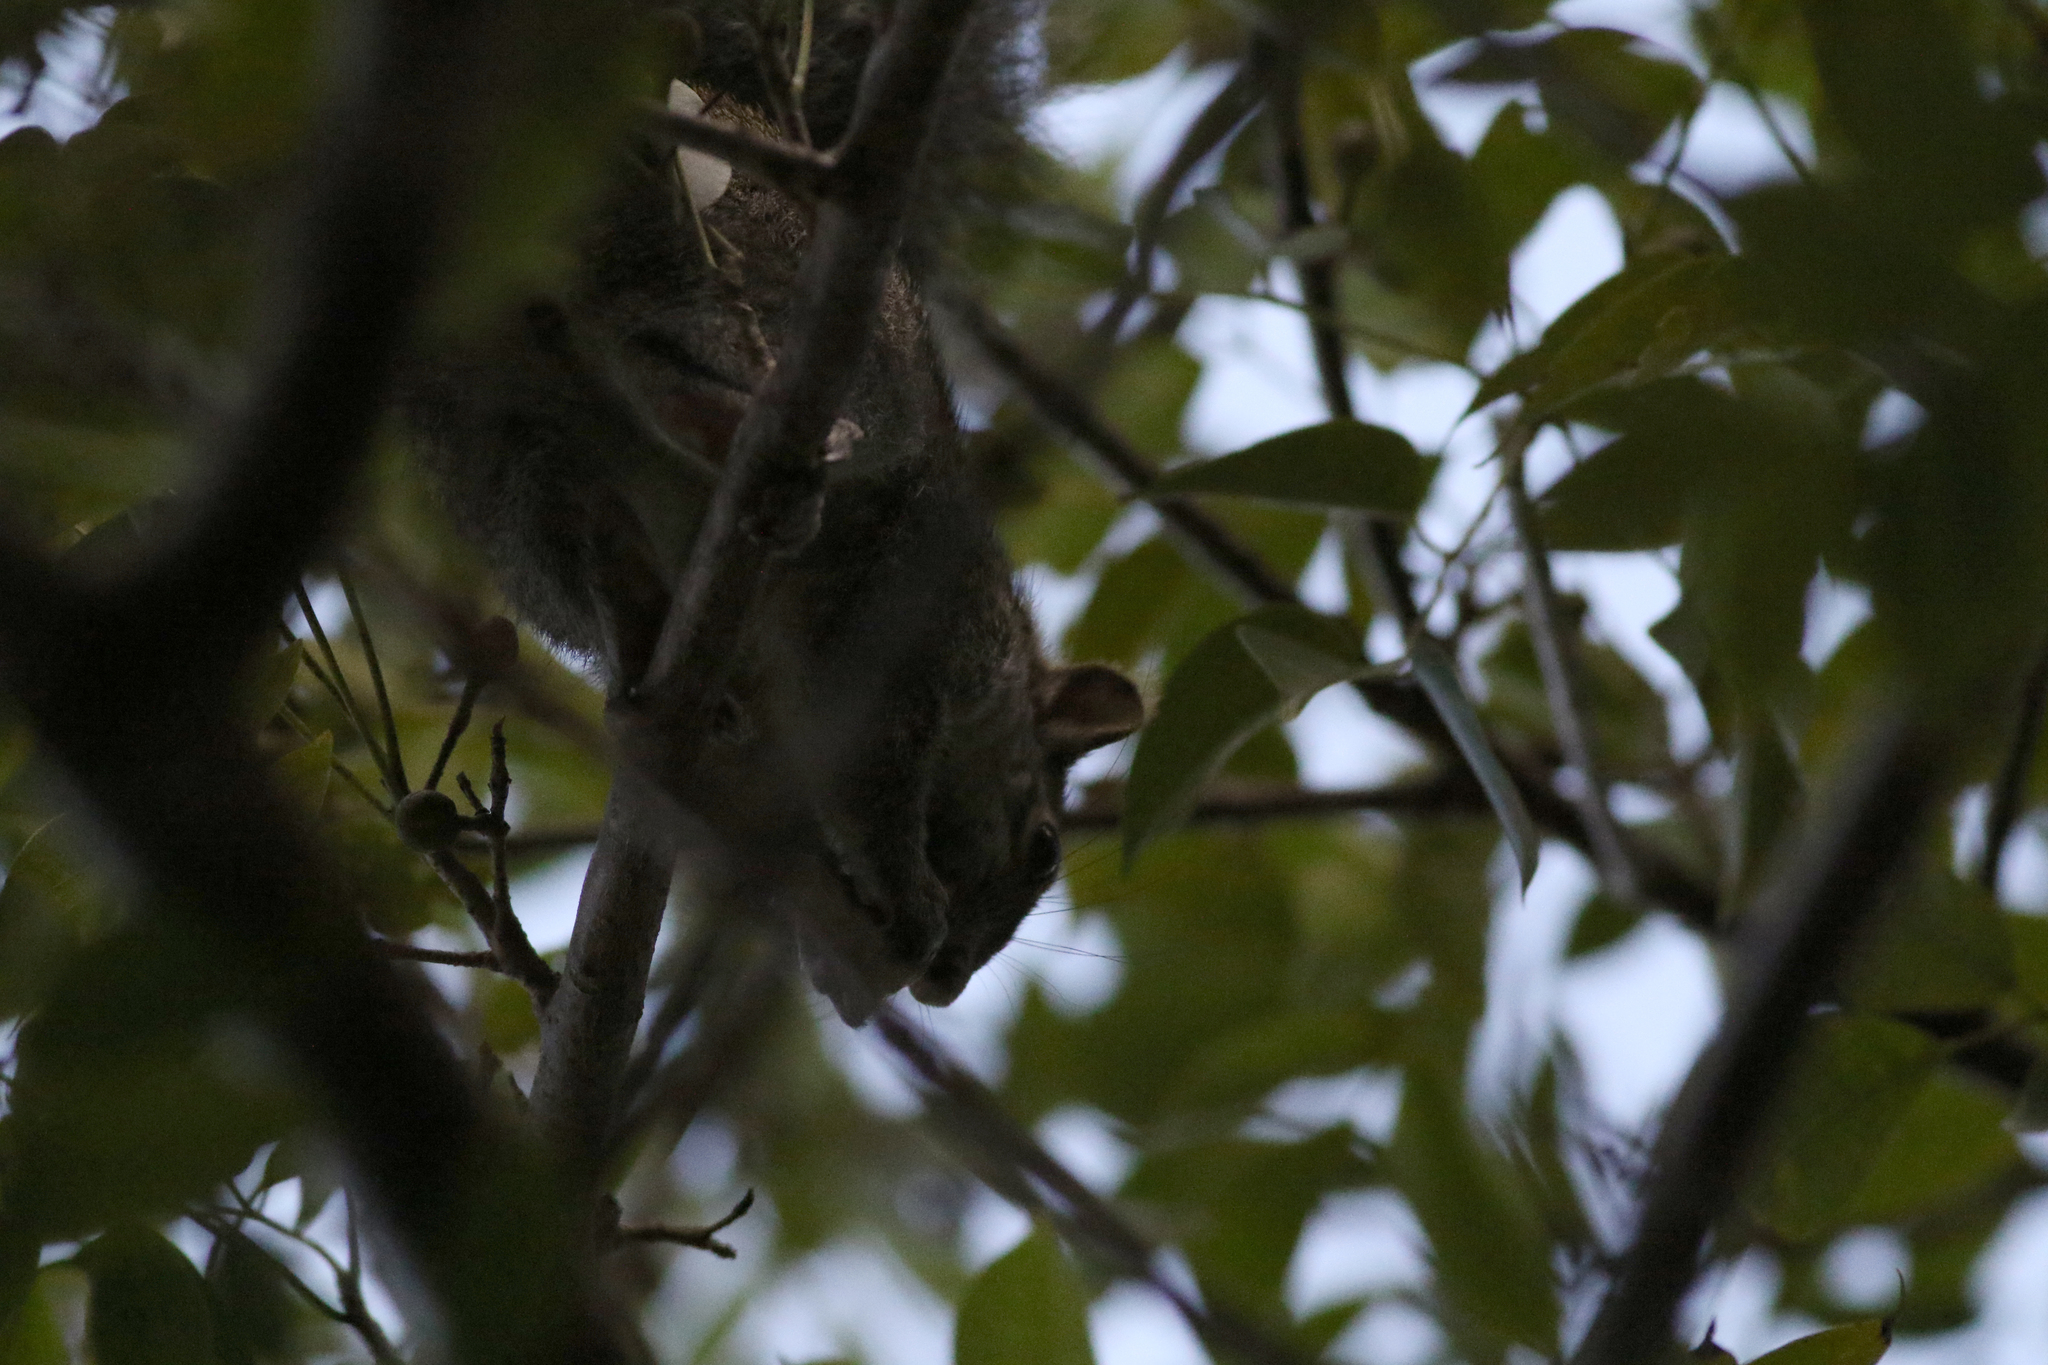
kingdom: Animalia
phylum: Chordata
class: Mammalia
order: Rodentia
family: Sciuridae
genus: Sciurus
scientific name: Sciurus yucatanensis
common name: Yucatan squirrel
